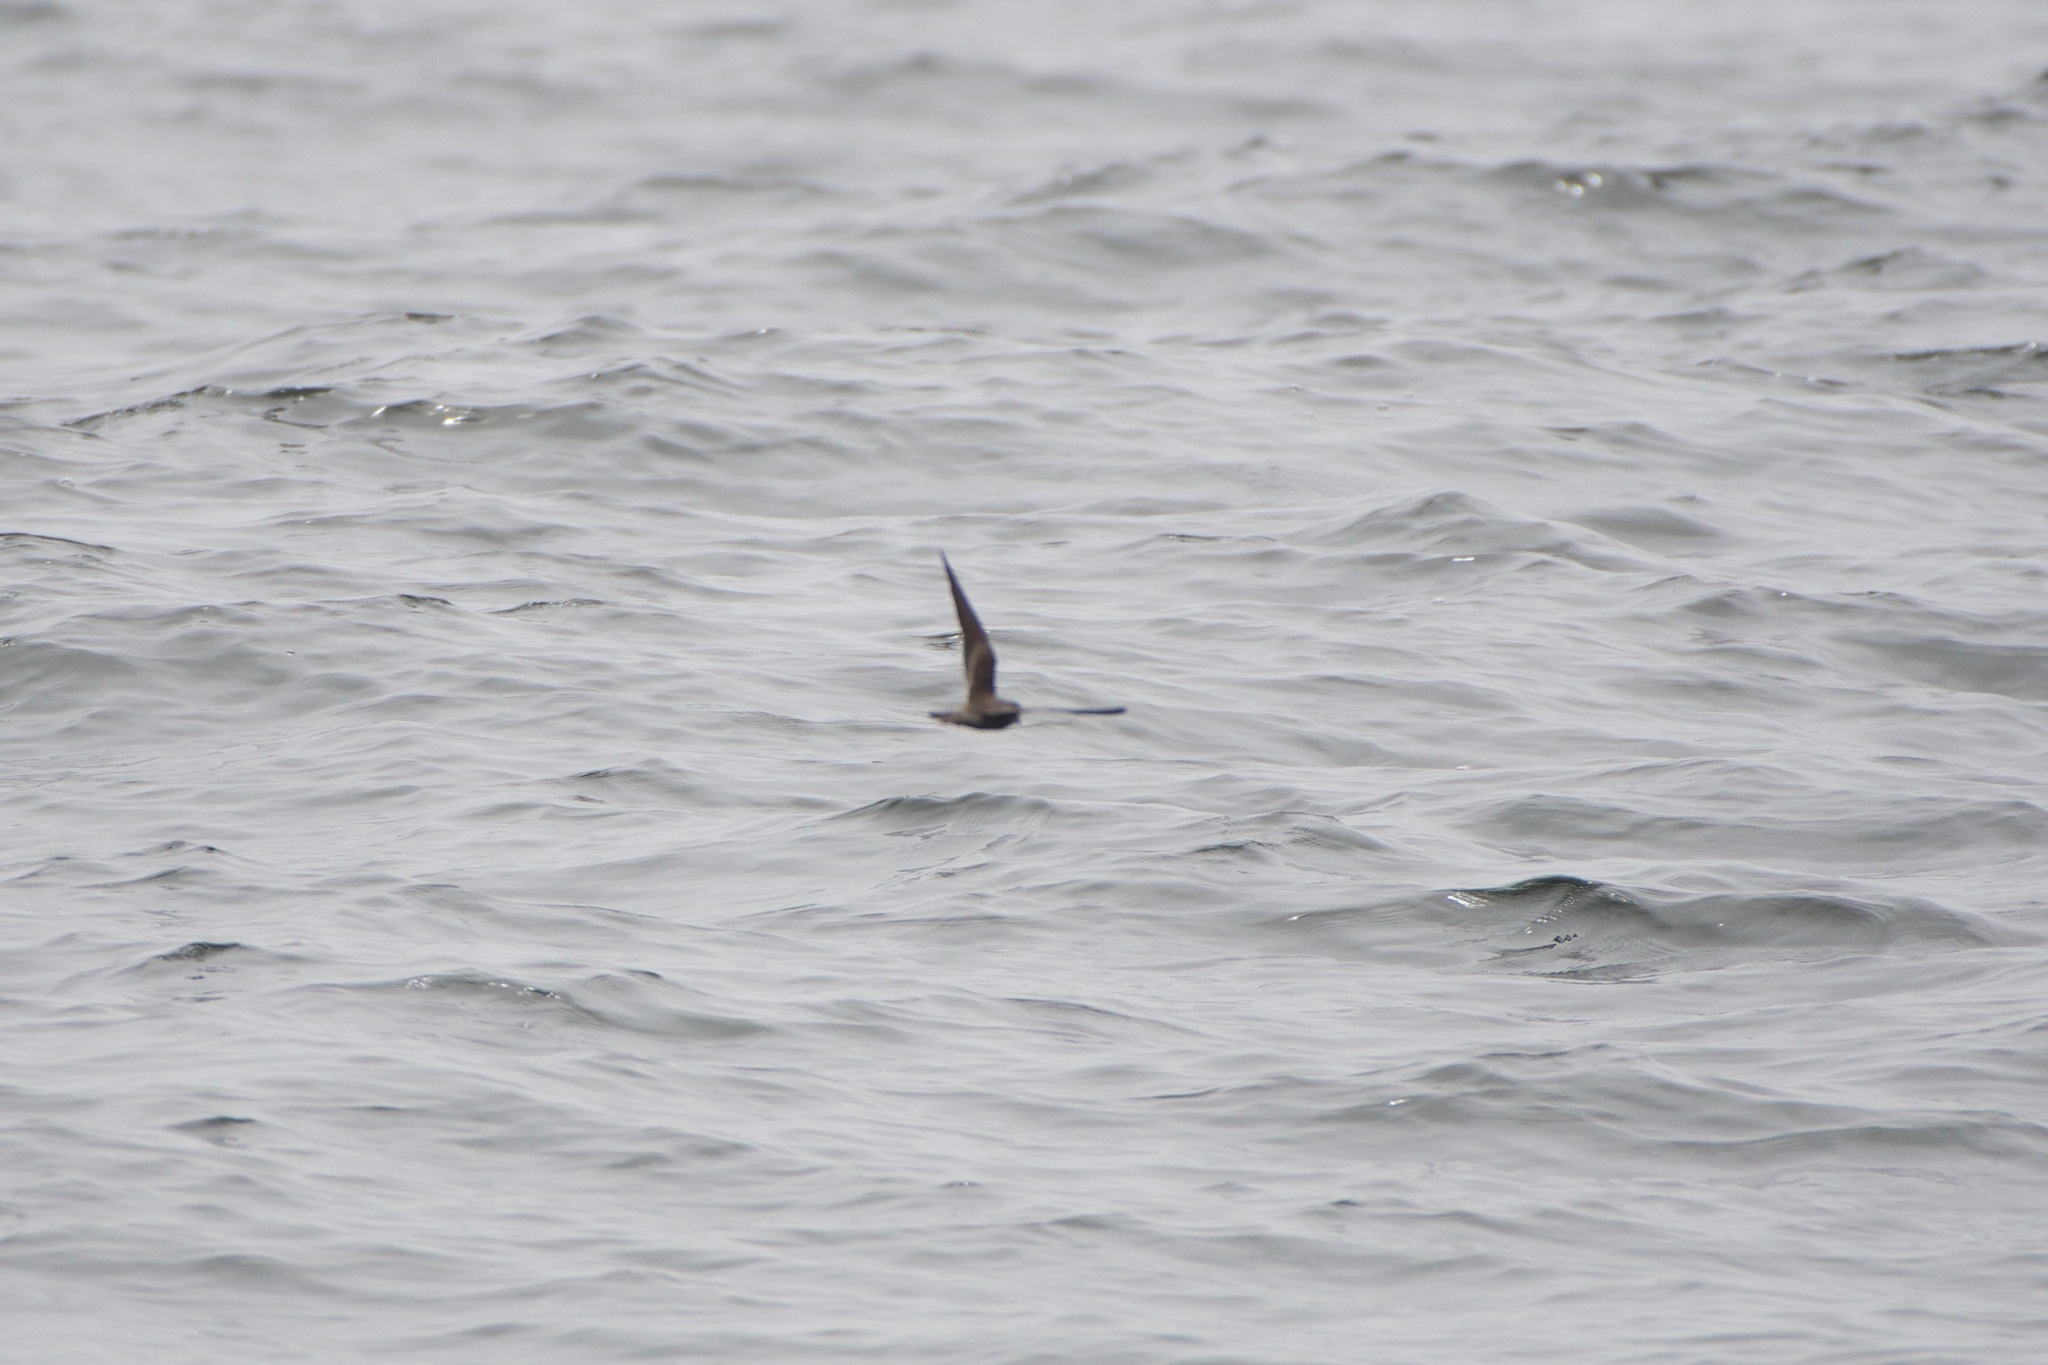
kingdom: Animalia
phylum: Chordata
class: Aves
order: Procellariiformes
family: Hydrobatidae
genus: Hydrobates
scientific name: Hydrobates homochroa
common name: Ashy storm petrel
